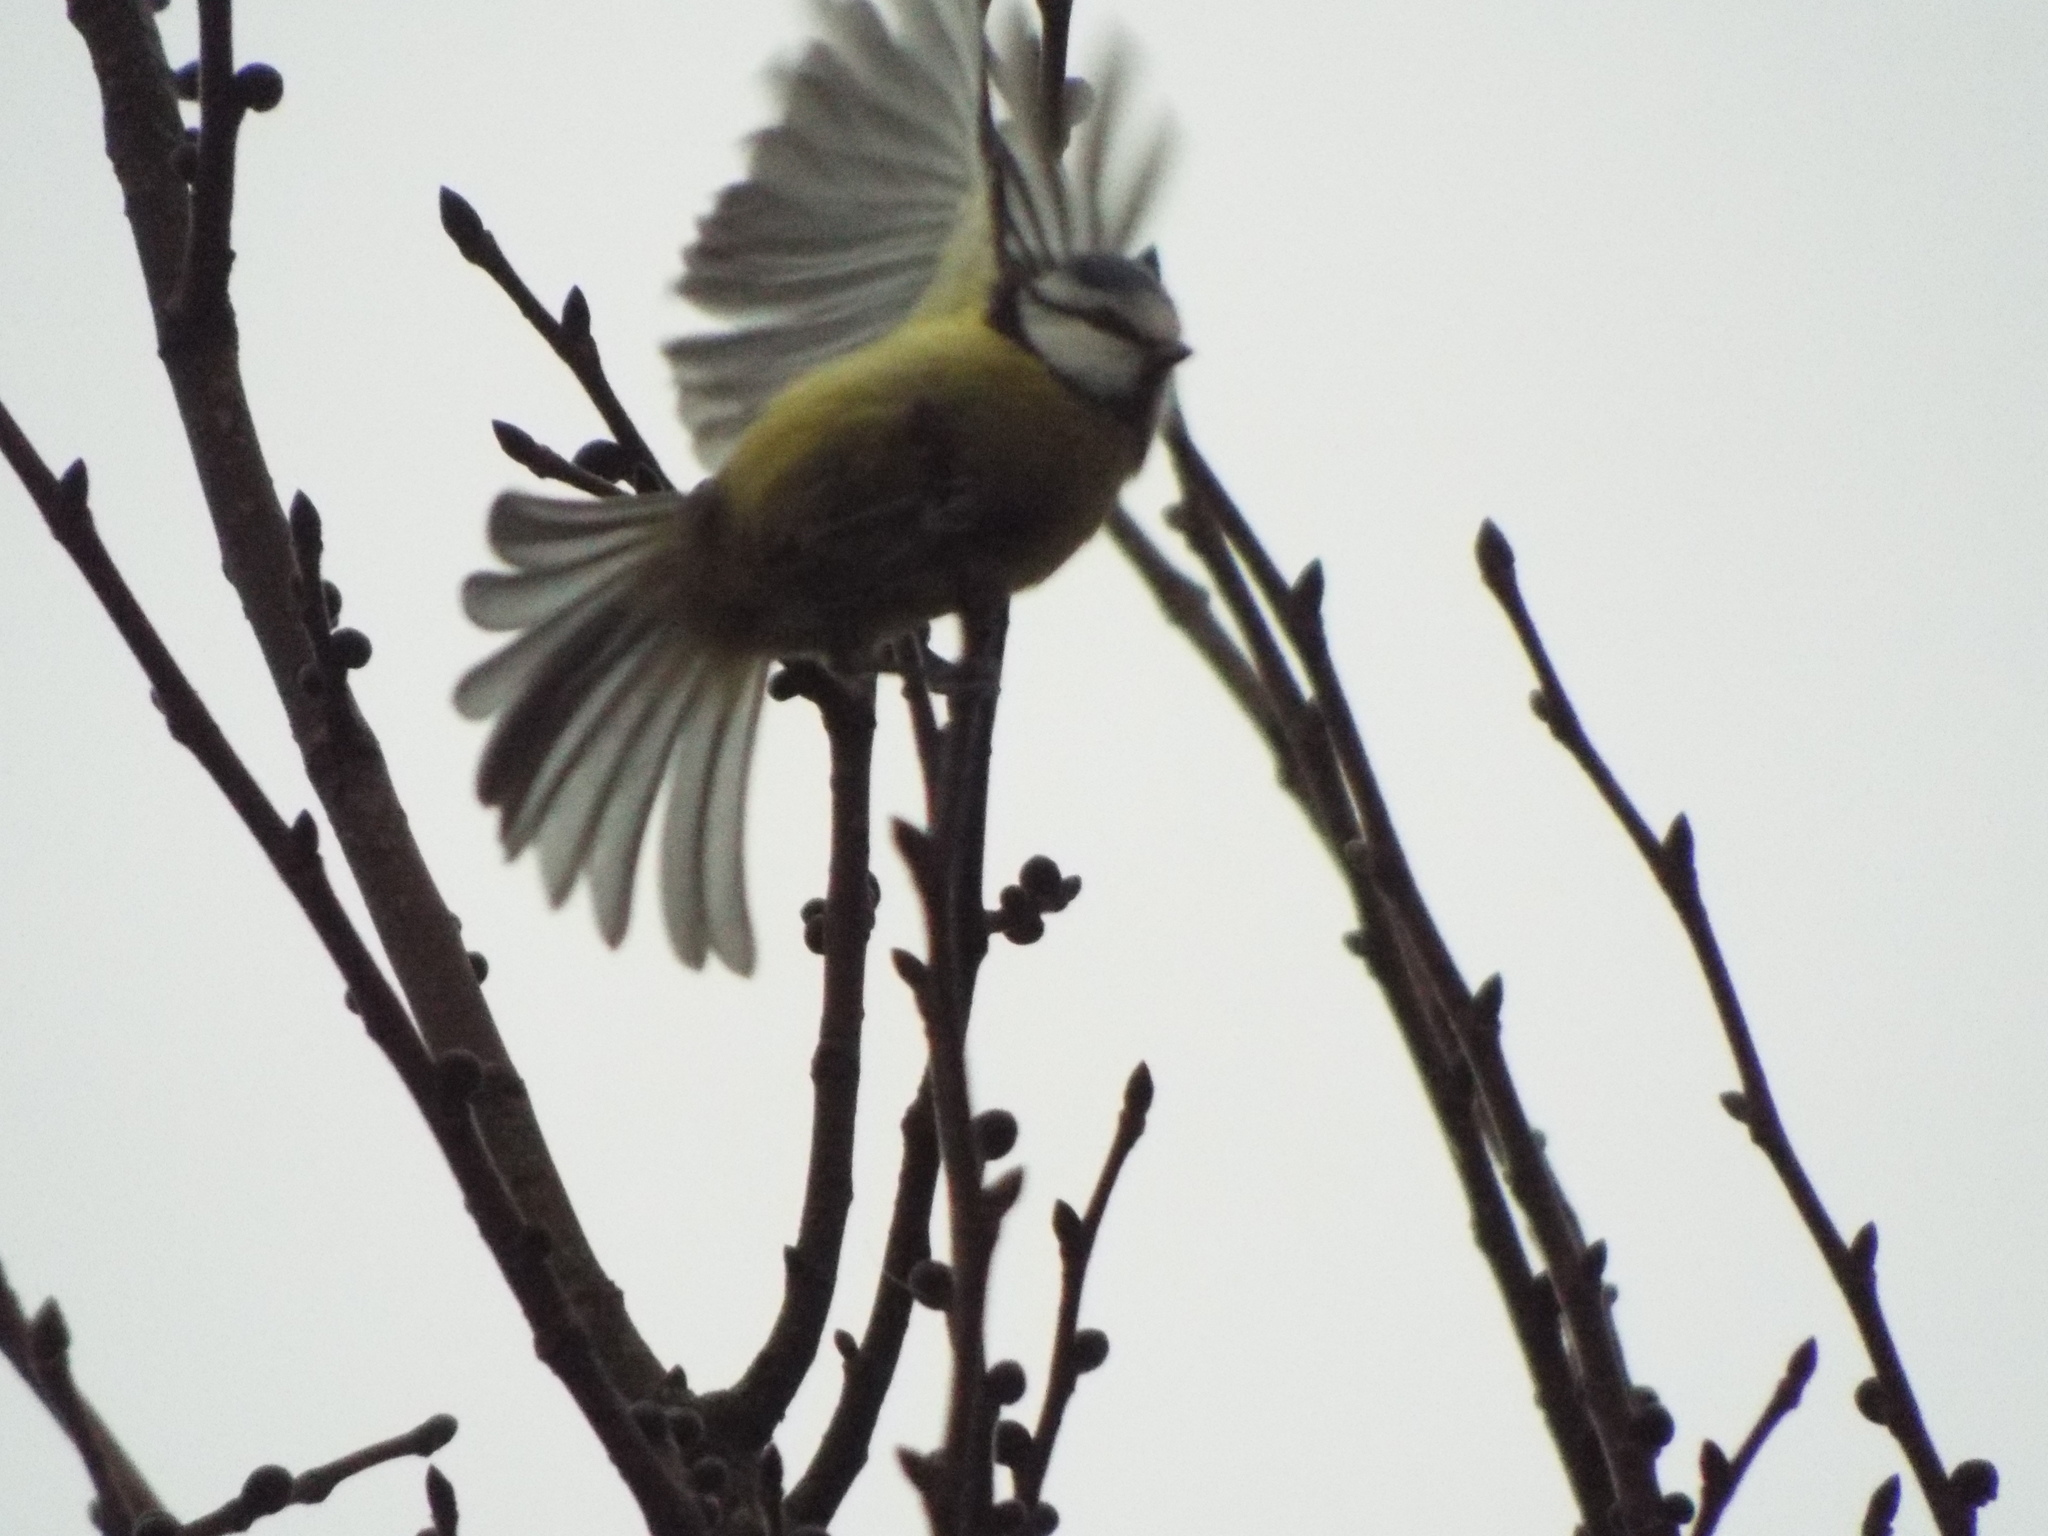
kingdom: Animalia
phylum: Chordata
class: Aves
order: Passeriformes
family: Paridae
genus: Cyanistes
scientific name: Cyanistes caeruleus
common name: Eurasian blue tit
